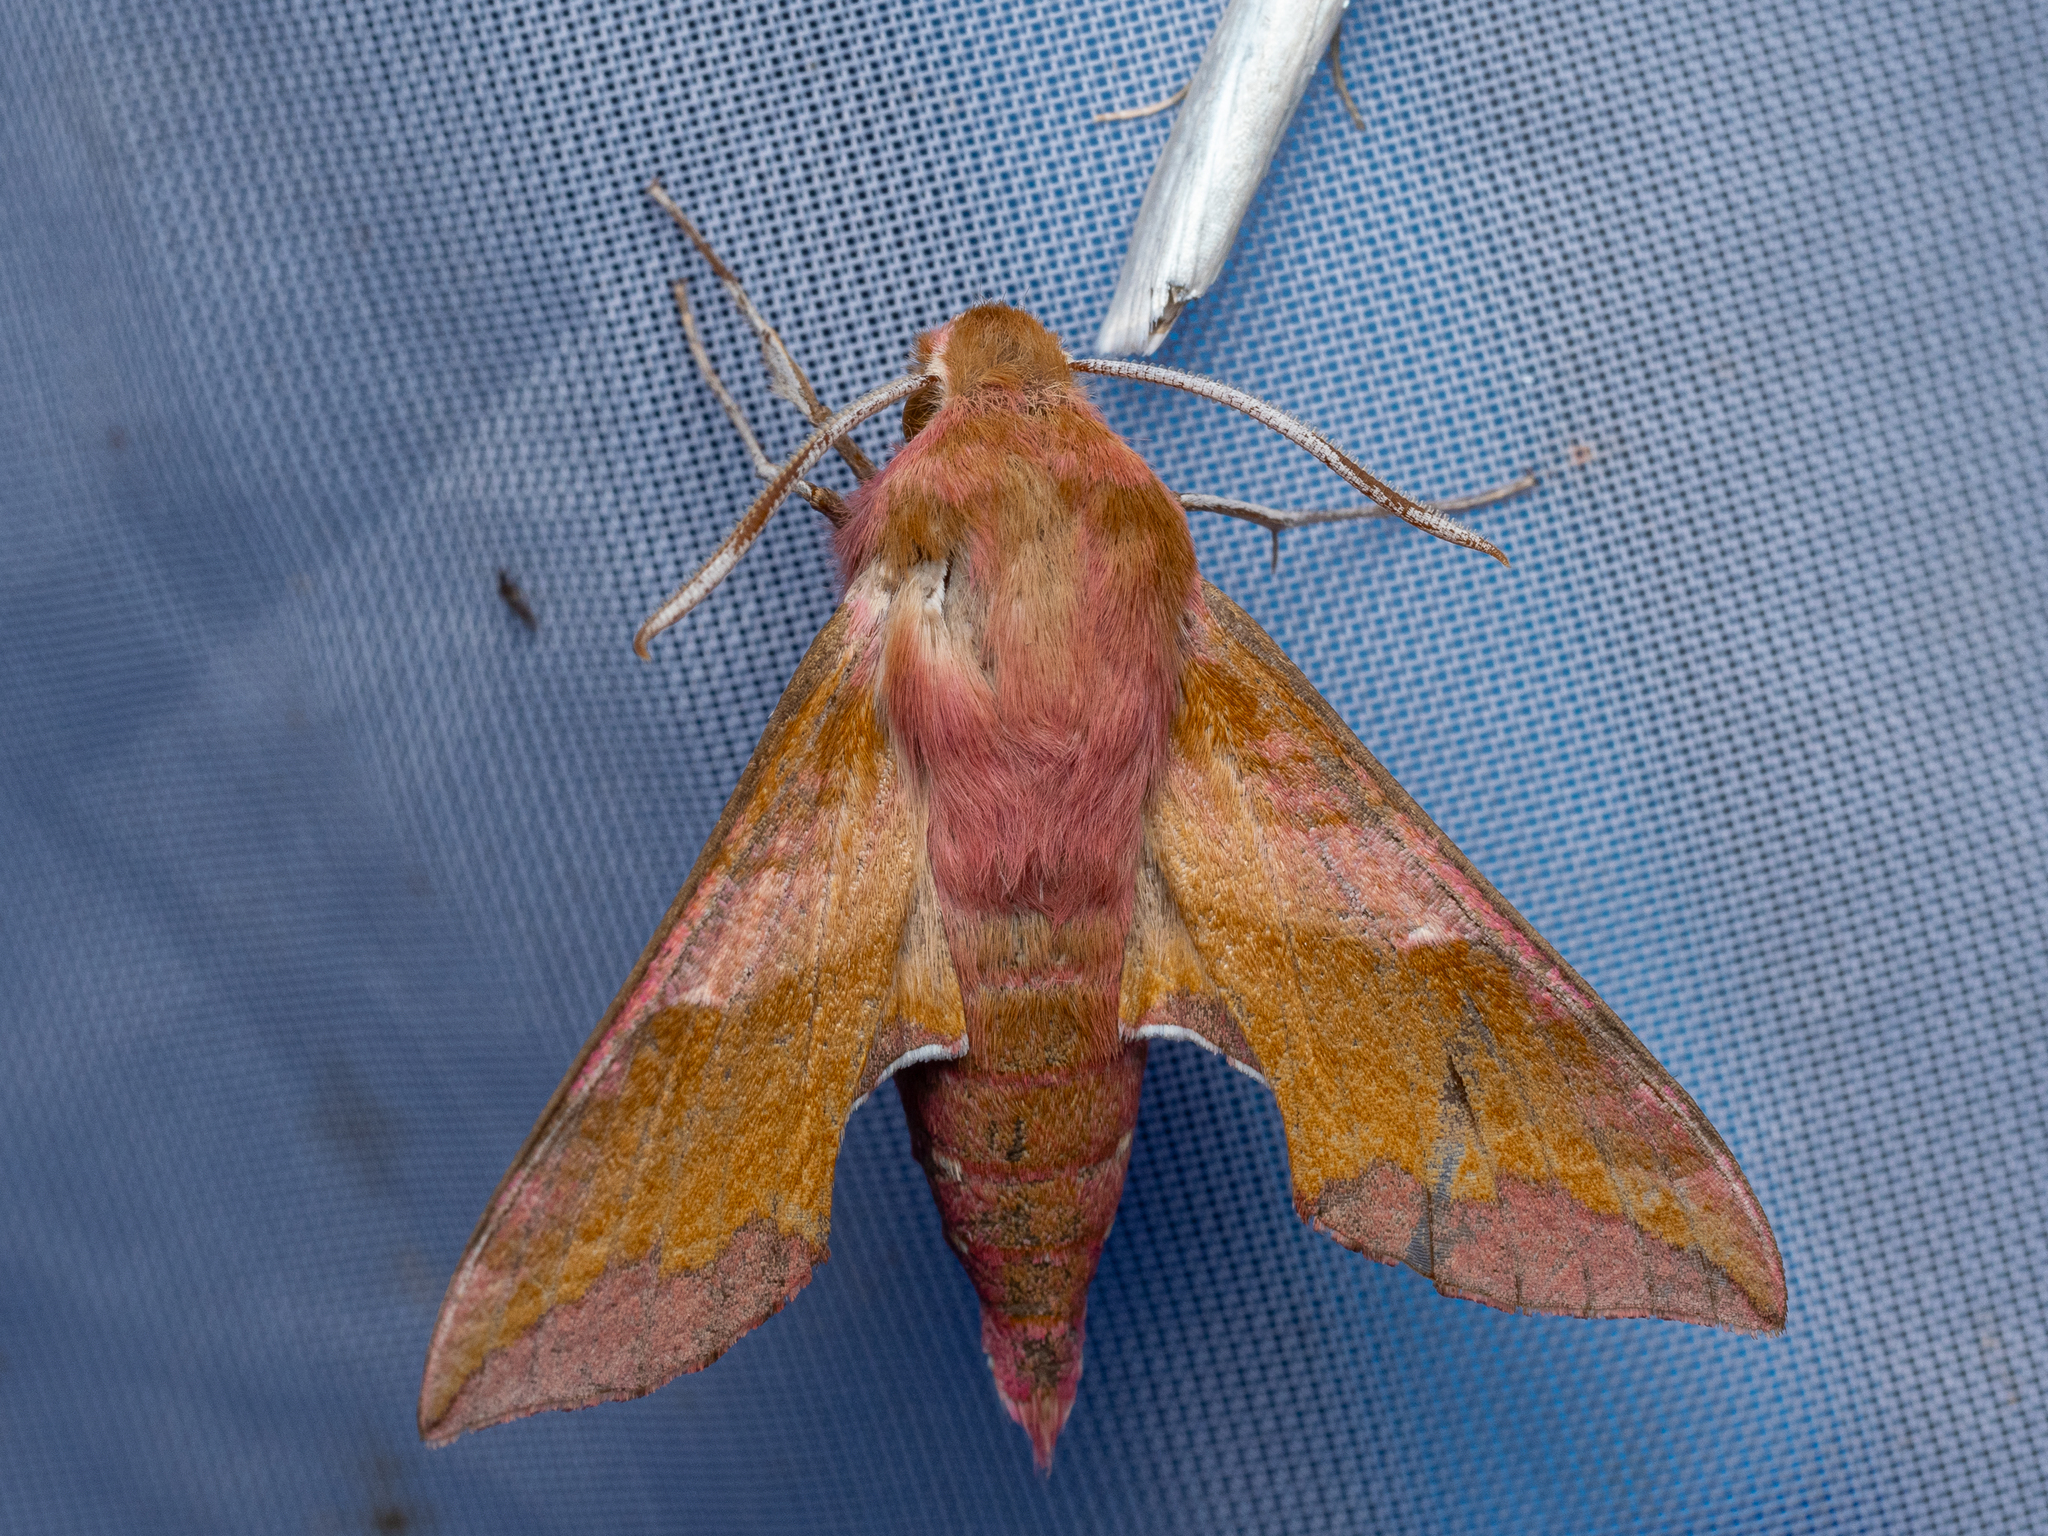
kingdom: Animalia
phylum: Arthropoda
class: Insecta
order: Lepidoptera
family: Sphingidae
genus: Deilephila
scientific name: Deilephila porcellus
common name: Small elephant hawk-moth
